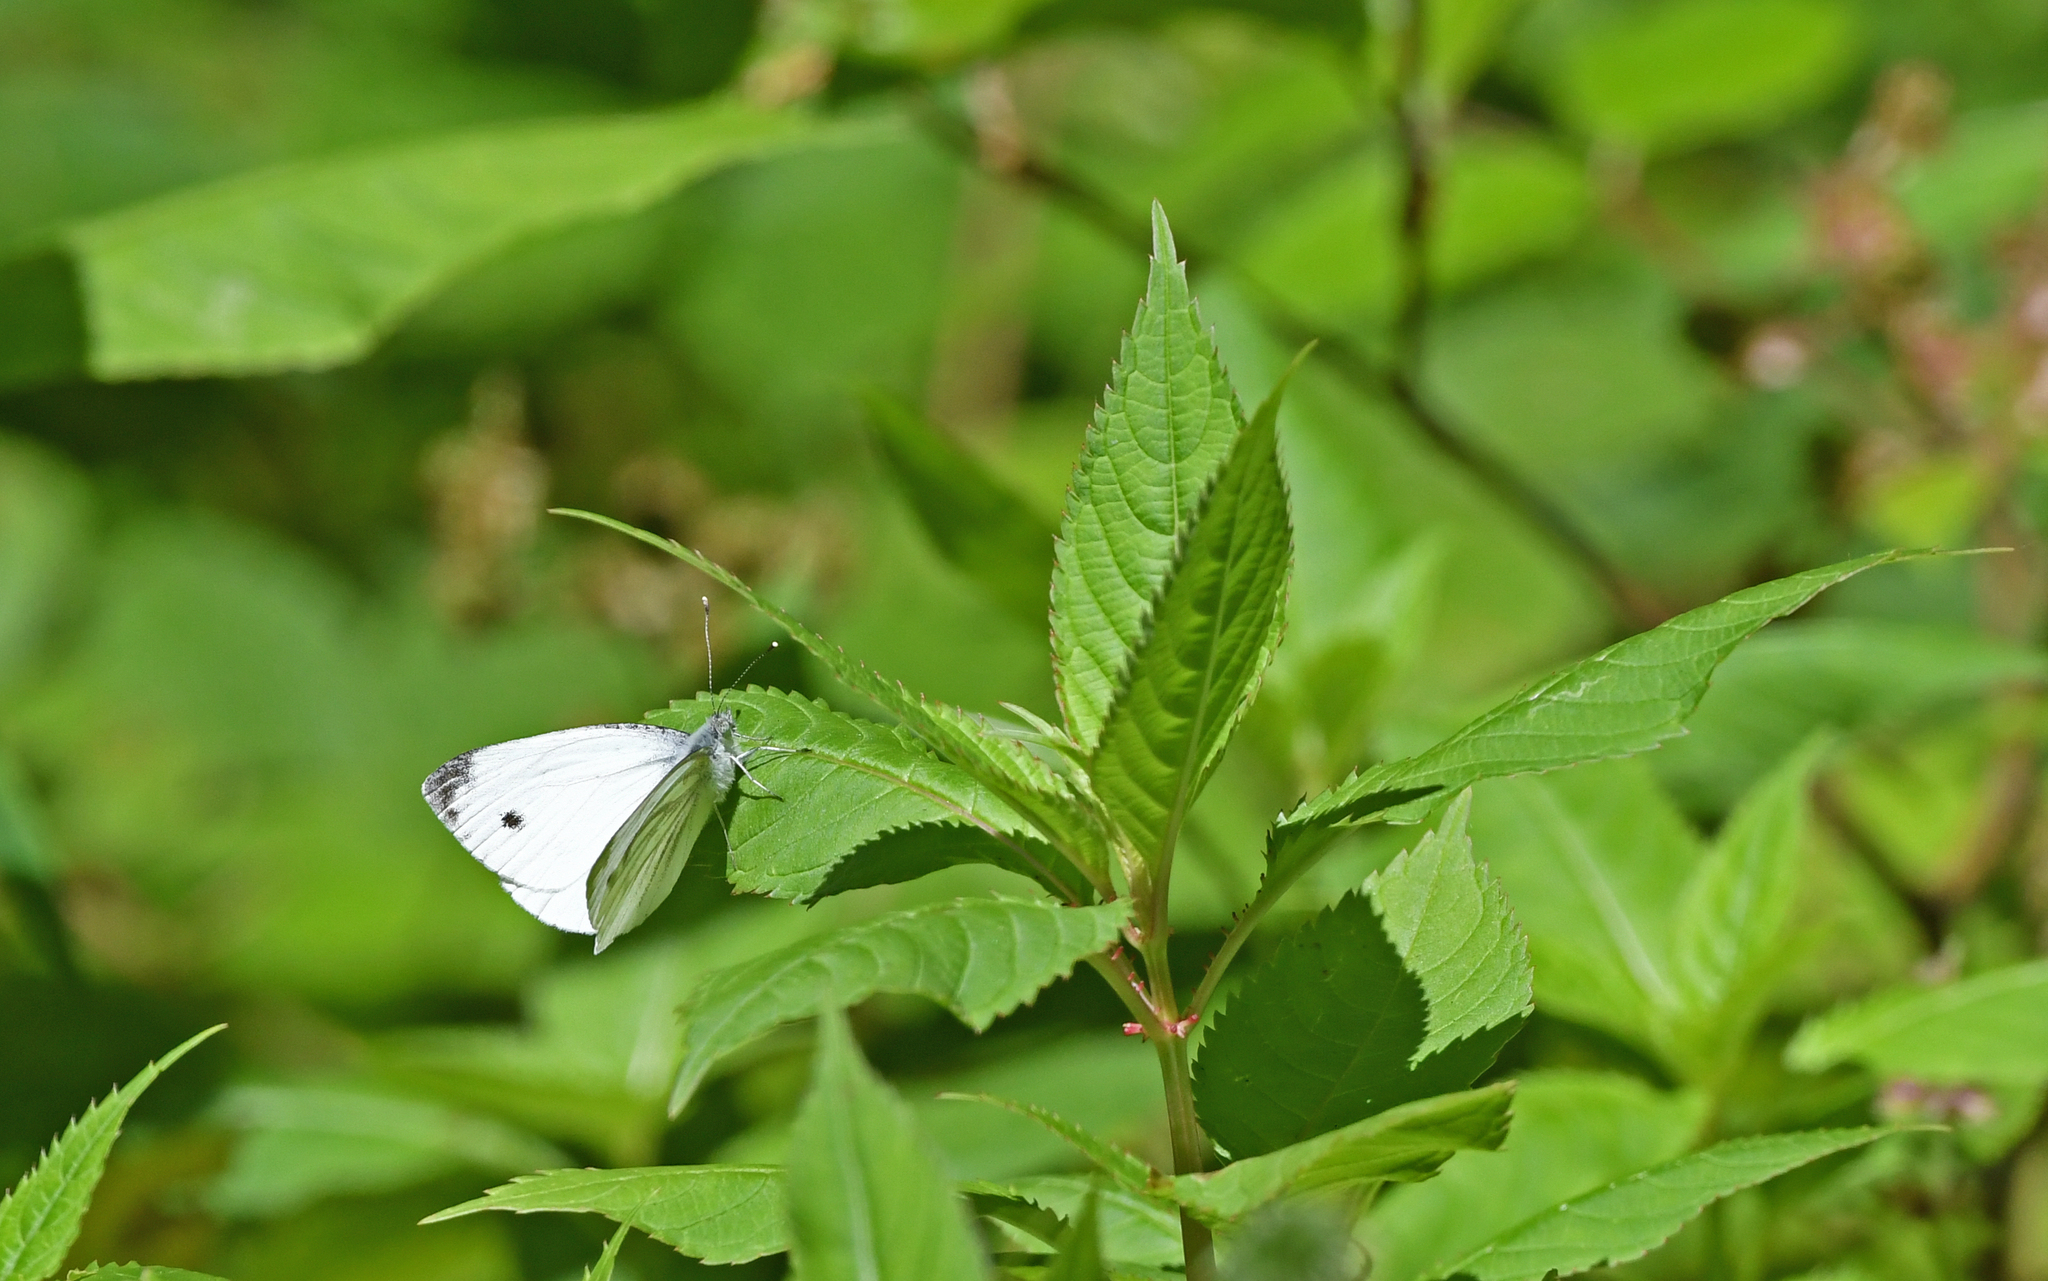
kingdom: Animalia
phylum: Arthropoda
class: Insecta
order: Lepidoptera
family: Pieridae
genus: Pieris
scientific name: Pieris napi
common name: Green-veined white
